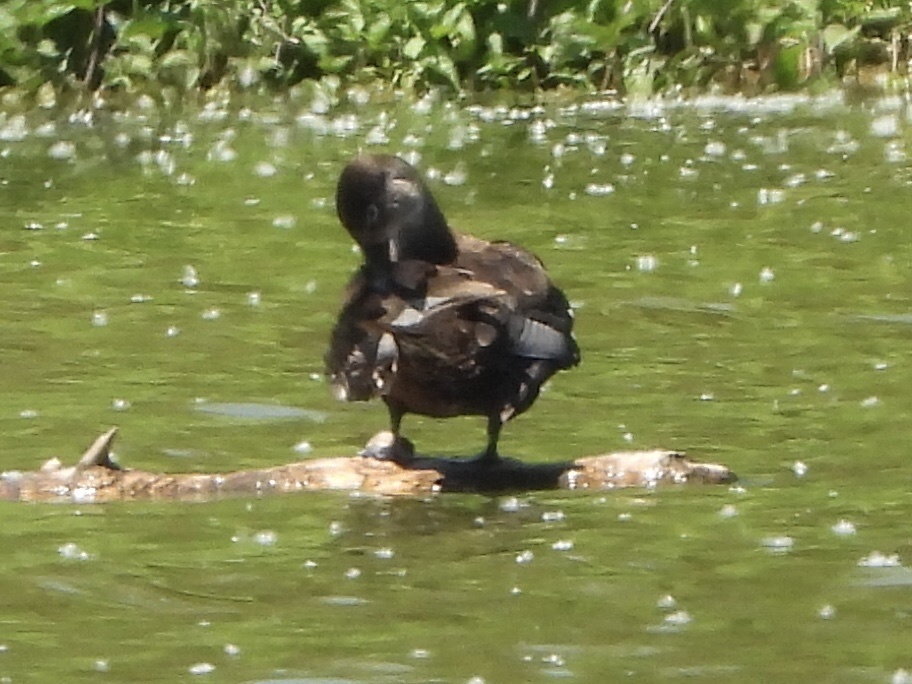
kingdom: Animalia
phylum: Chordata
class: Aves
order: Anseriformes
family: Anatidae
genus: Aythya
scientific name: Aythya collaris
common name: Ring-necked duck
